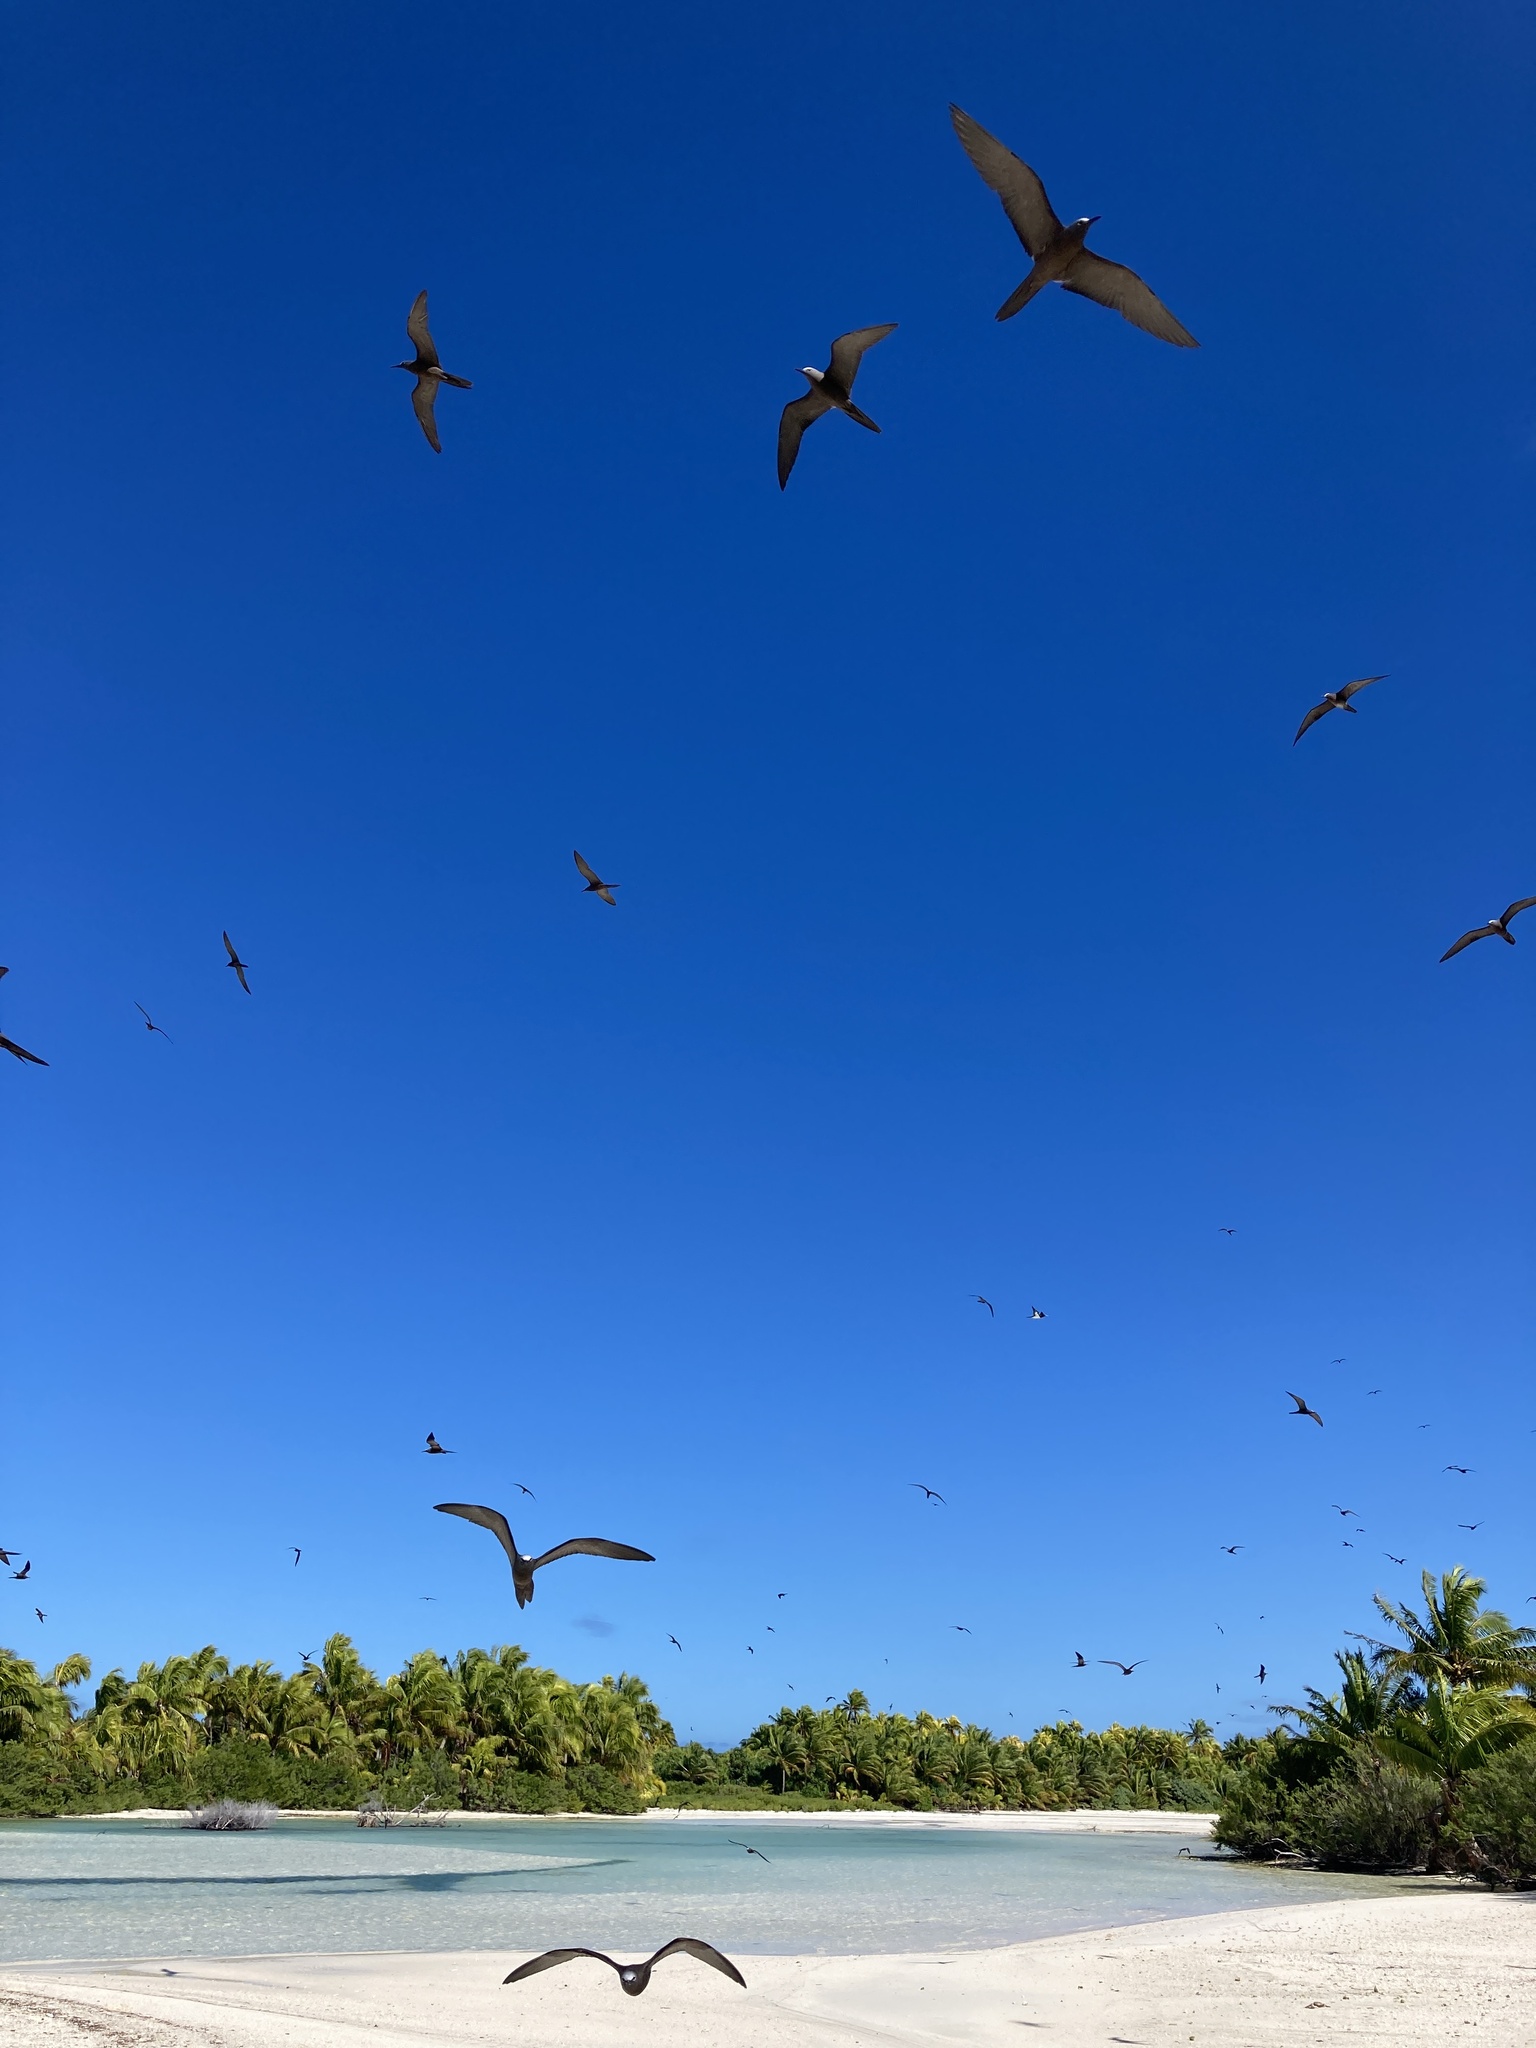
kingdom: Animalia
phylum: Chordata
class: Aves
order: Charadriiformes
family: Laridae
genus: Anous
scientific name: Anous stolidus
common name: Brown noddy
